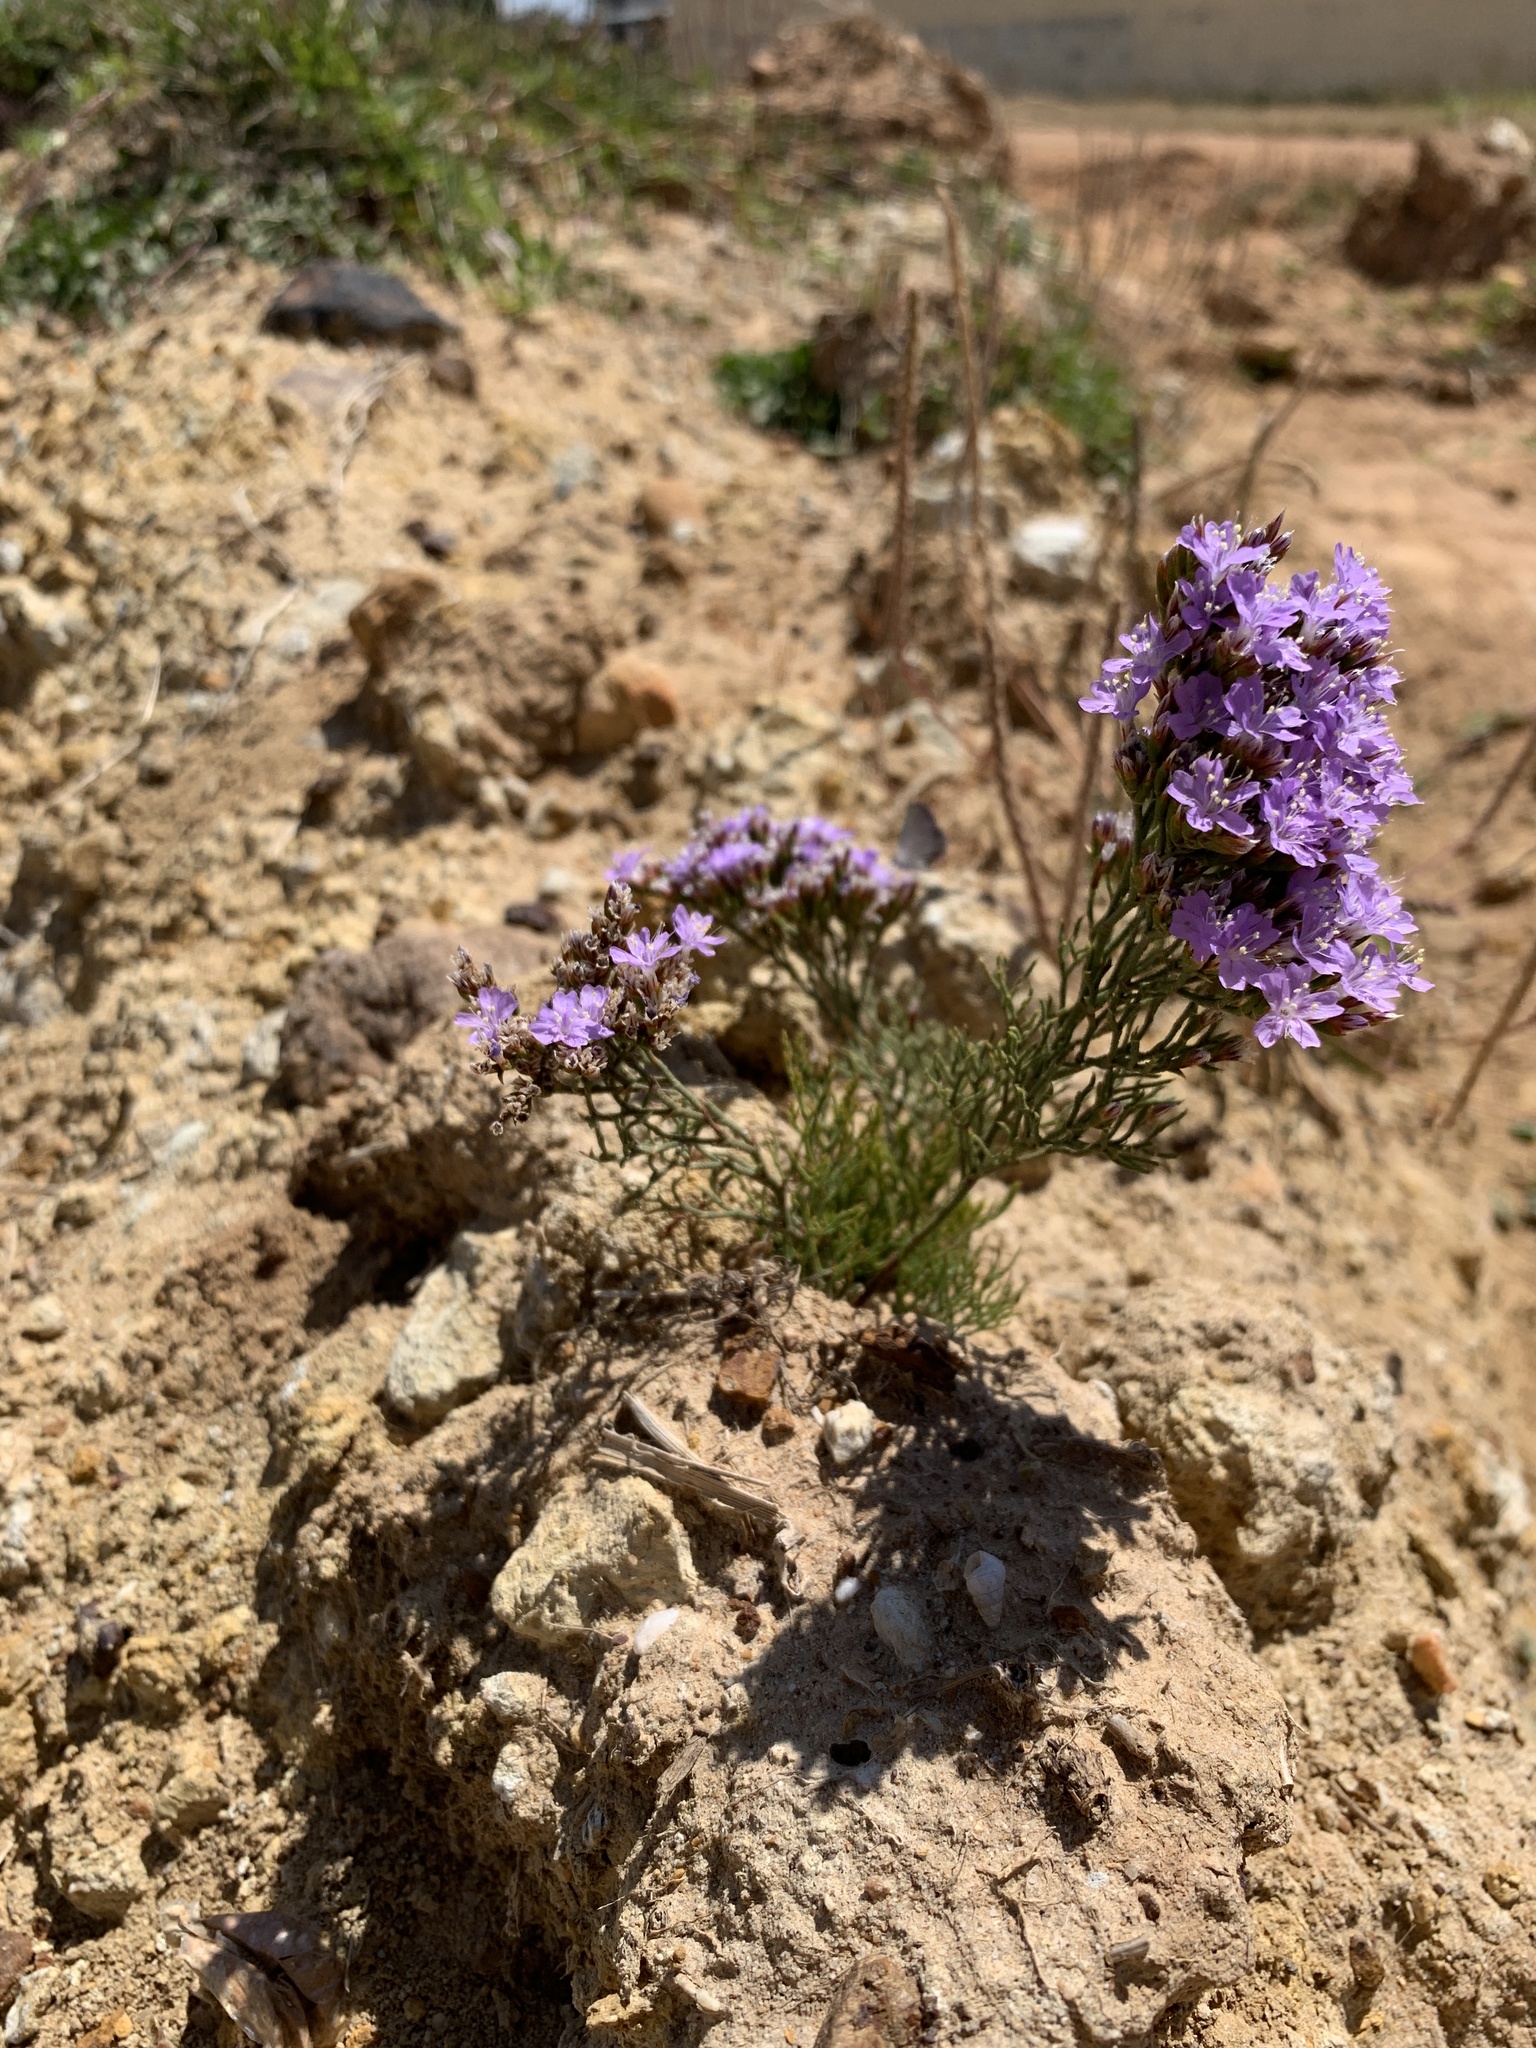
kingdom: Plantae
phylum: Tracheophyta
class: Magnoliopsida
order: Caryophyllales
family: Plumbaginaceae
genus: Limonium
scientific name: Limonium scabrum
